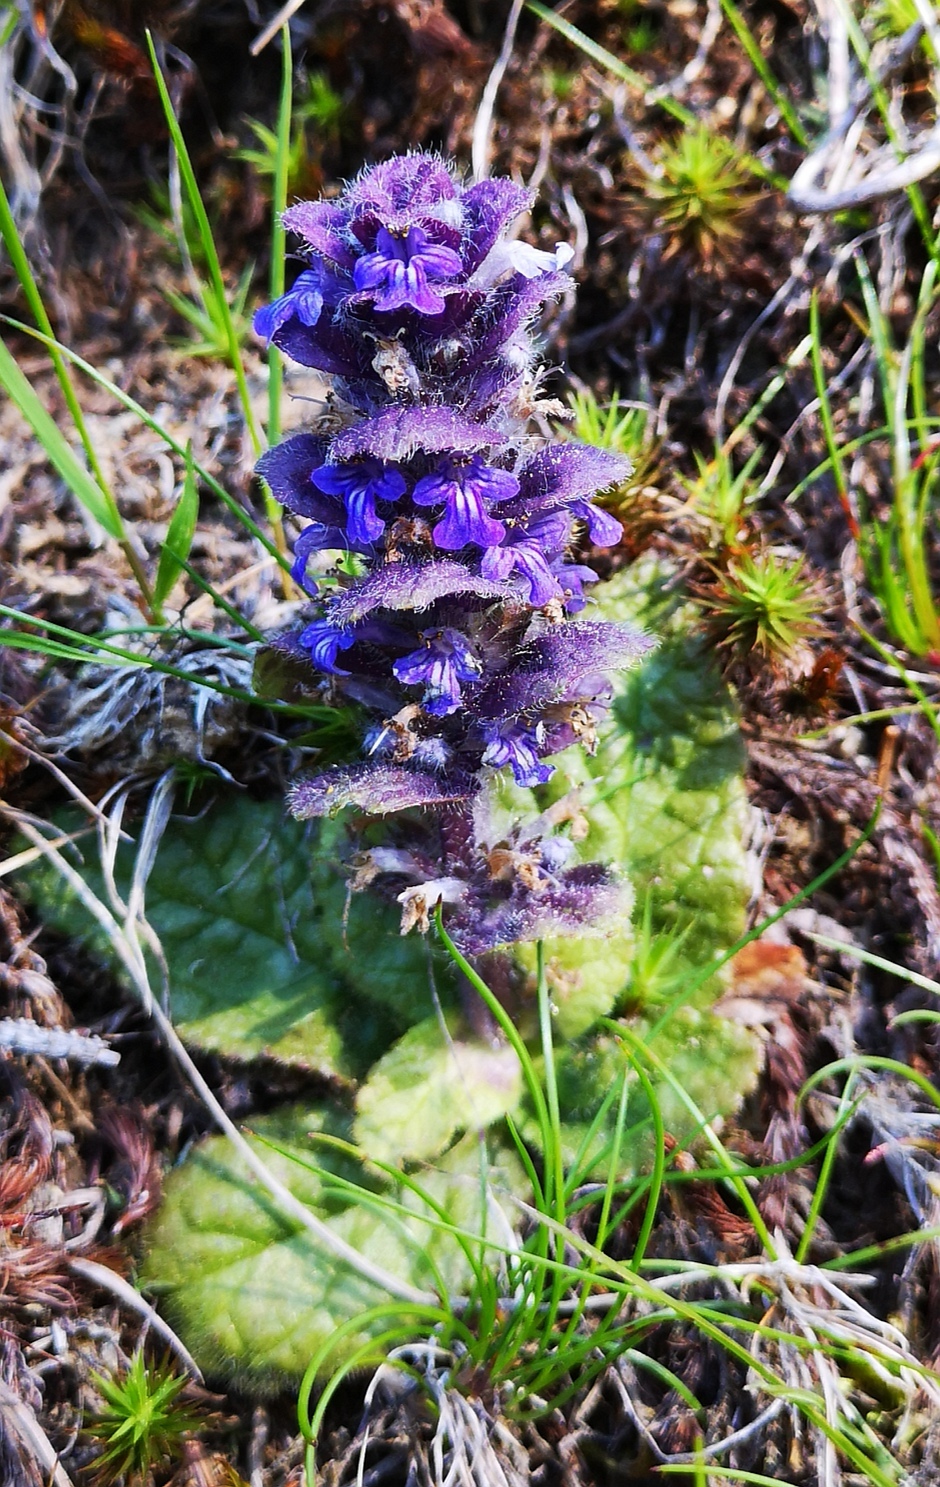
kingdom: Plantae
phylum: Tracheophyta
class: Magnoliopsida
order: Lamiales
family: Lamiaceae
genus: Ajuga
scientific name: Ajuga pyramidalis
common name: Pyramid bugle
